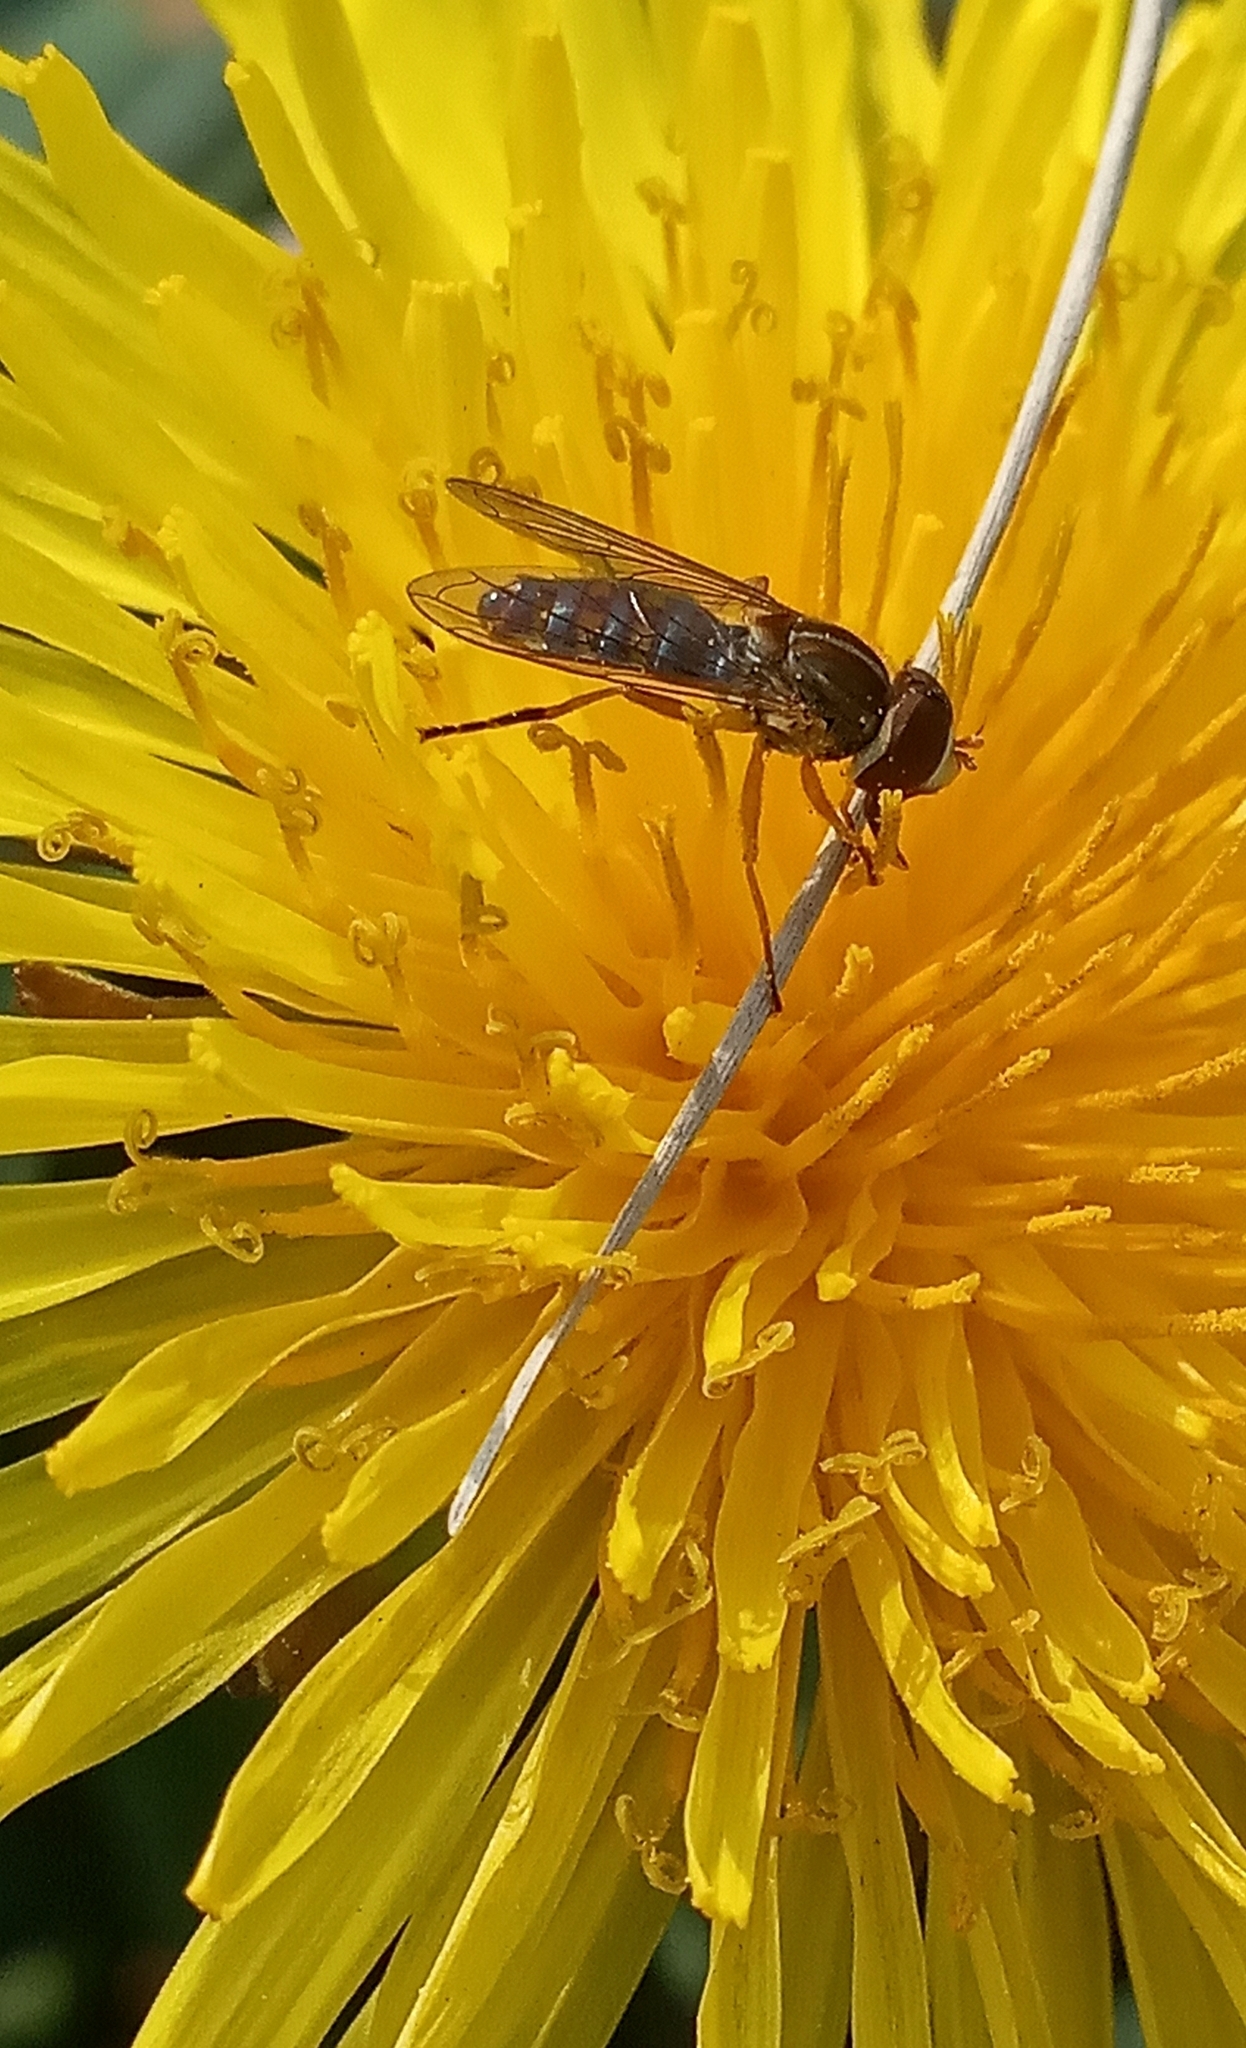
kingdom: Animalia
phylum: Arthropoda
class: Insecta
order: Diptera
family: Syrphidae
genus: Toxomerus
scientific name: Toxomerus
